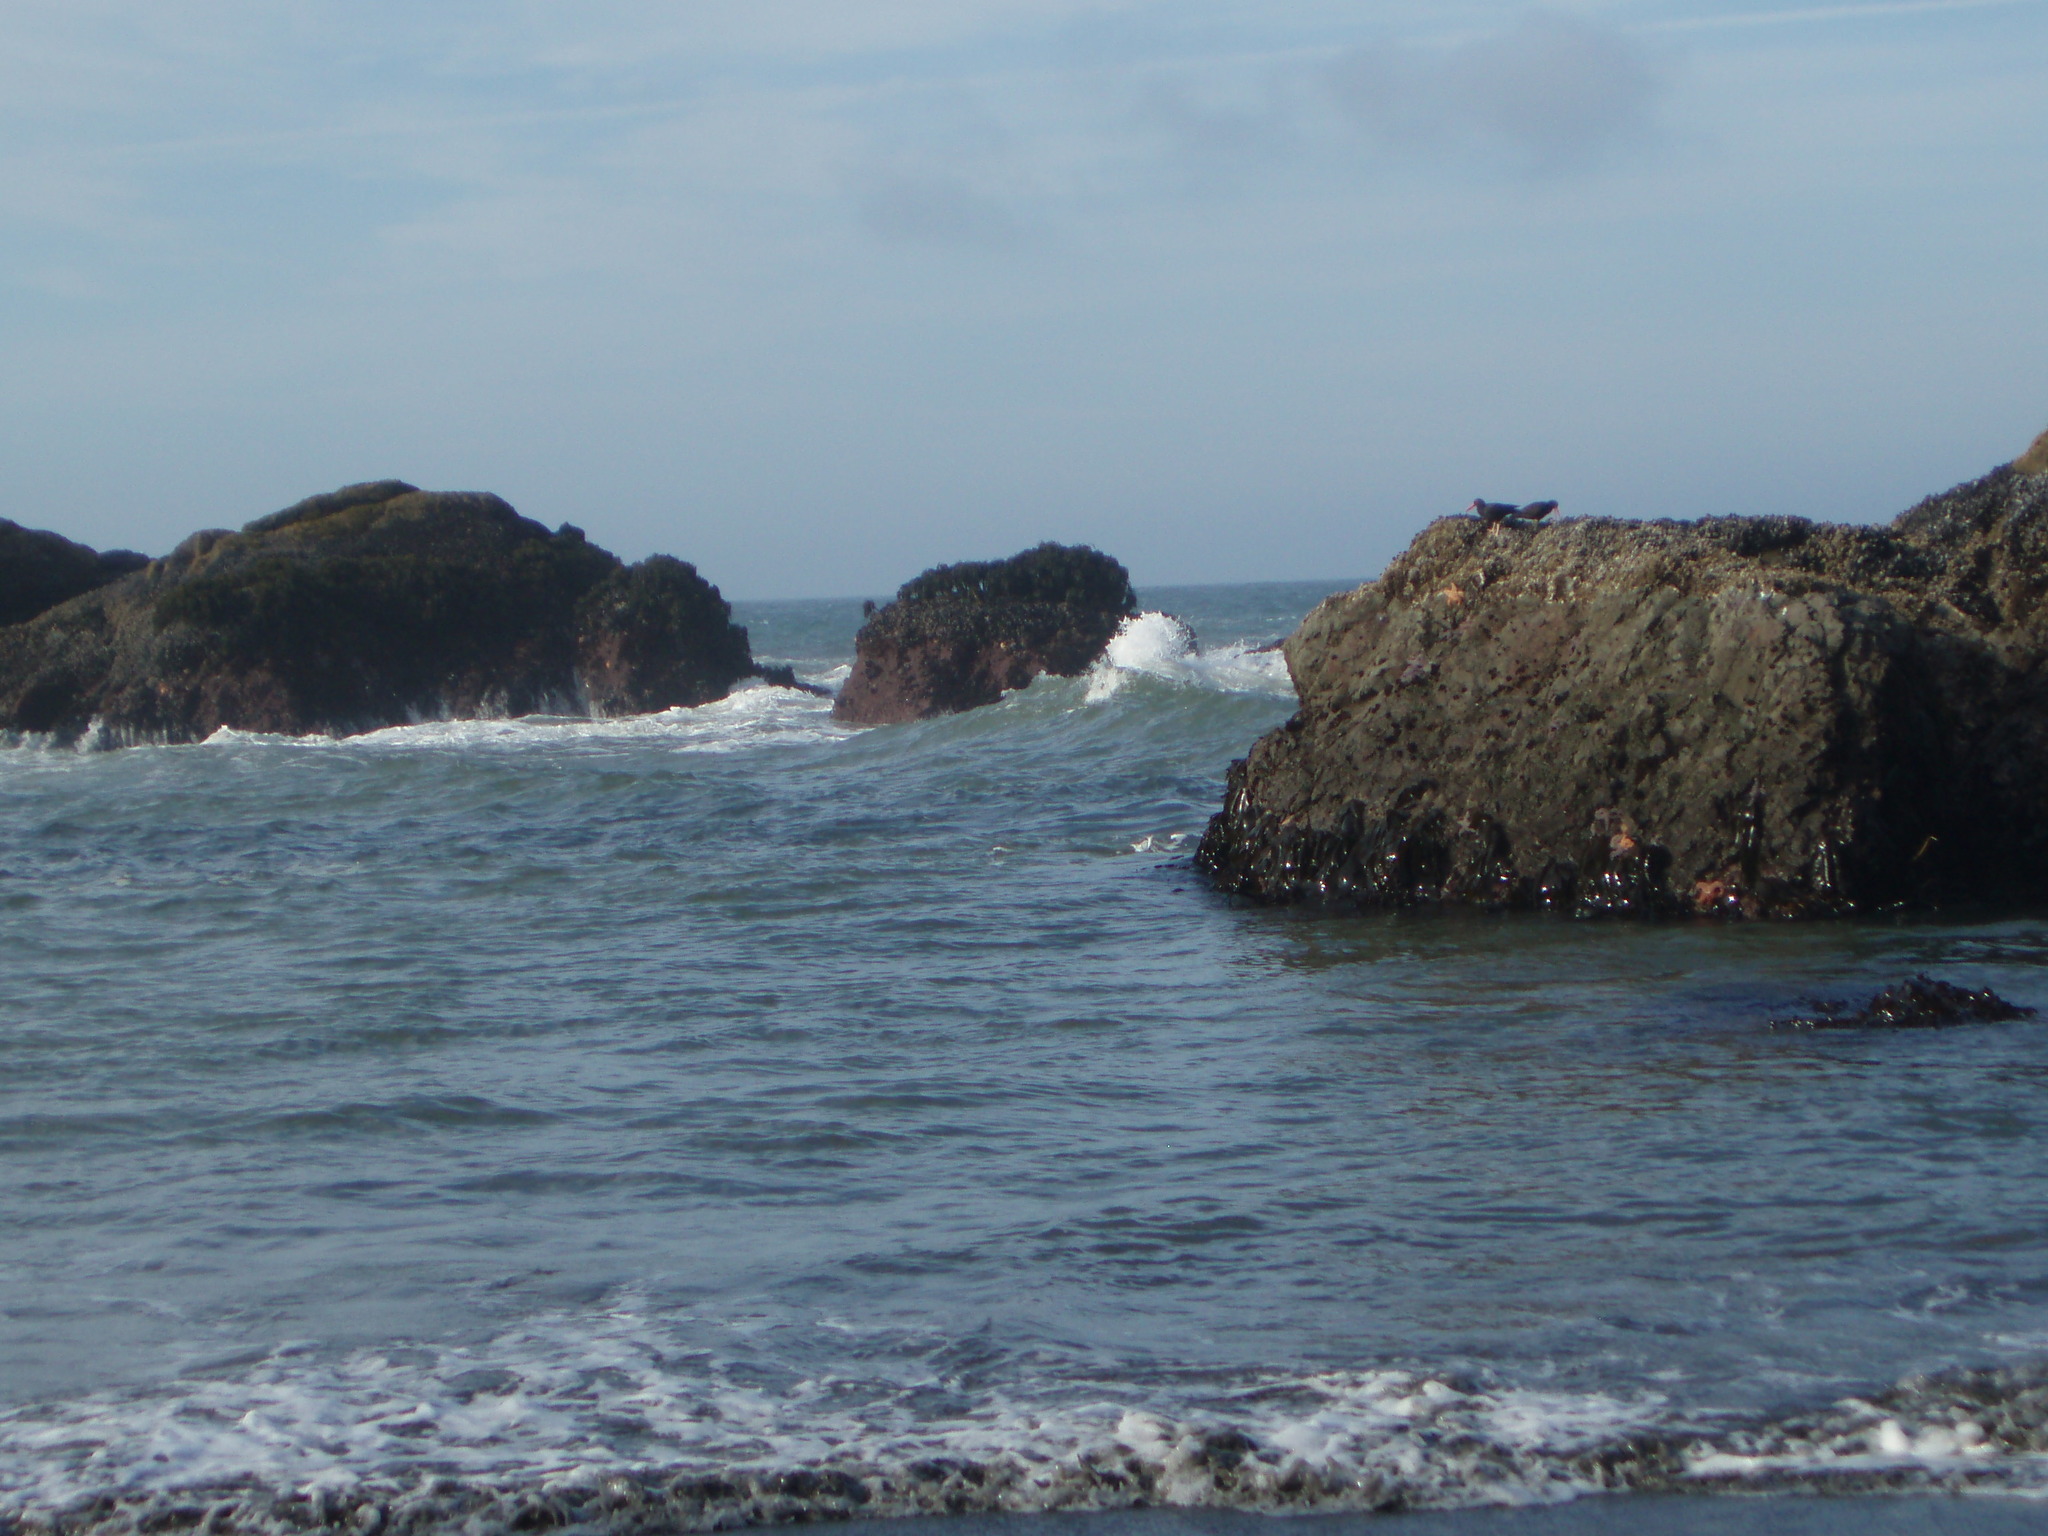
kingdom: Animalia
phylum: Chordata
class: Aves
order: Charadriiformes
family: Haematopodidae
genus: Haematopus
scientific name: Haematopus bachmani
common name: Black oystercatcher
